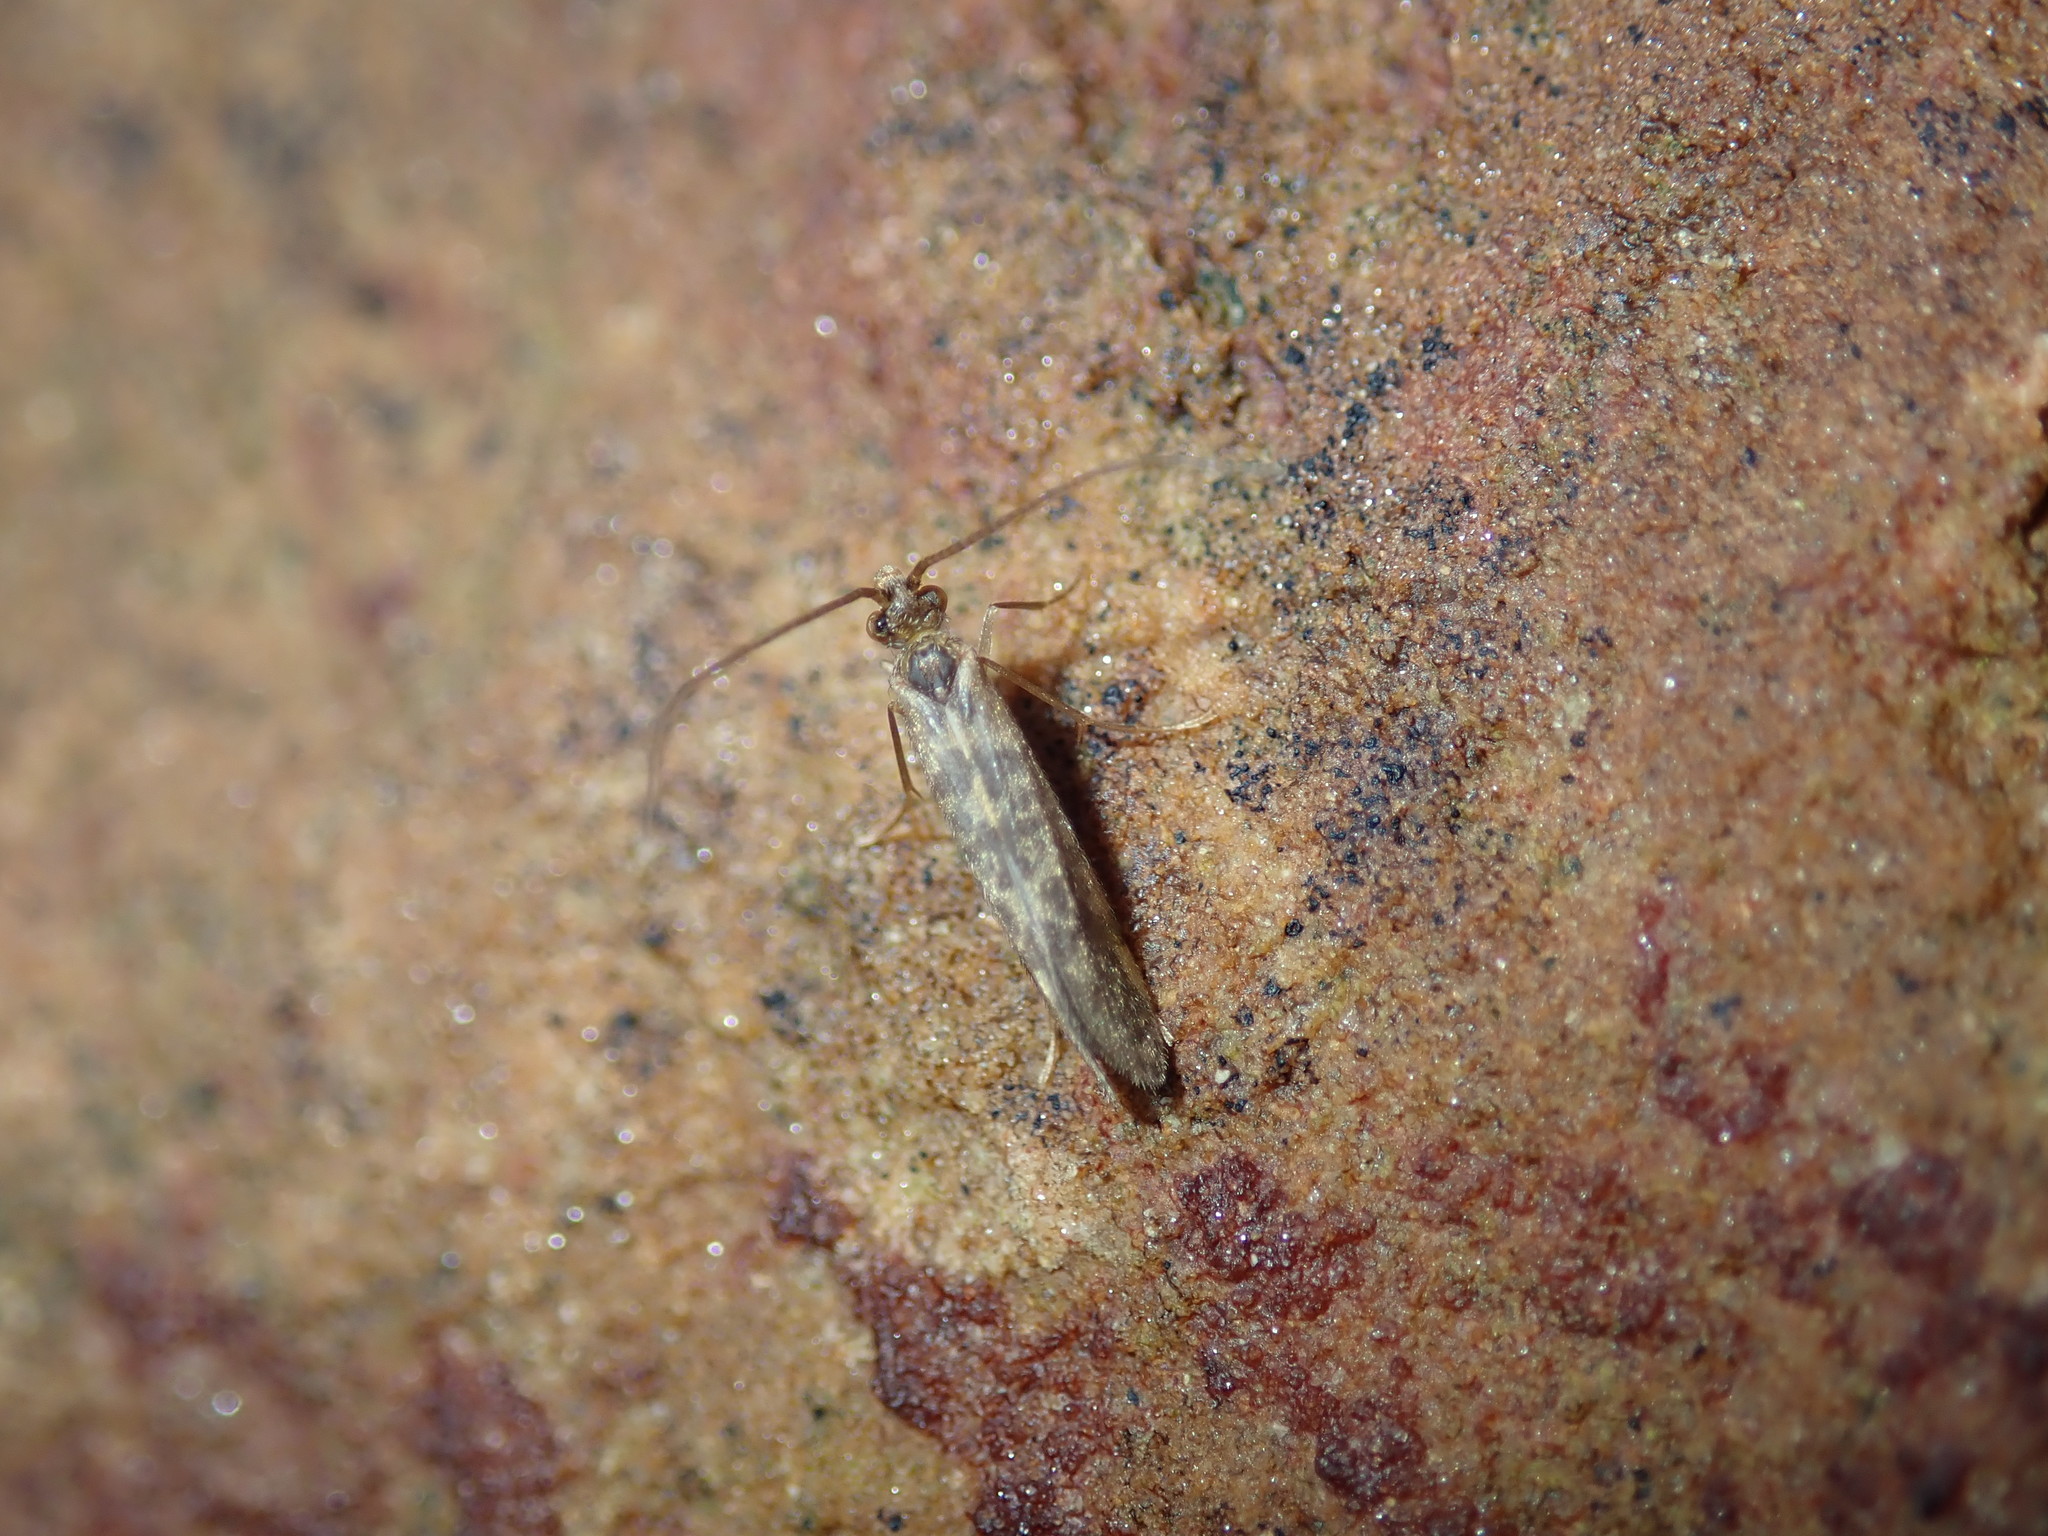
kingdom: Animalia
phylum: Arthropoda
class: Insecta
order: Trichoptera
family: Chathamiidae
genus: Philanisus
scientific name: Philanisus plebeius
